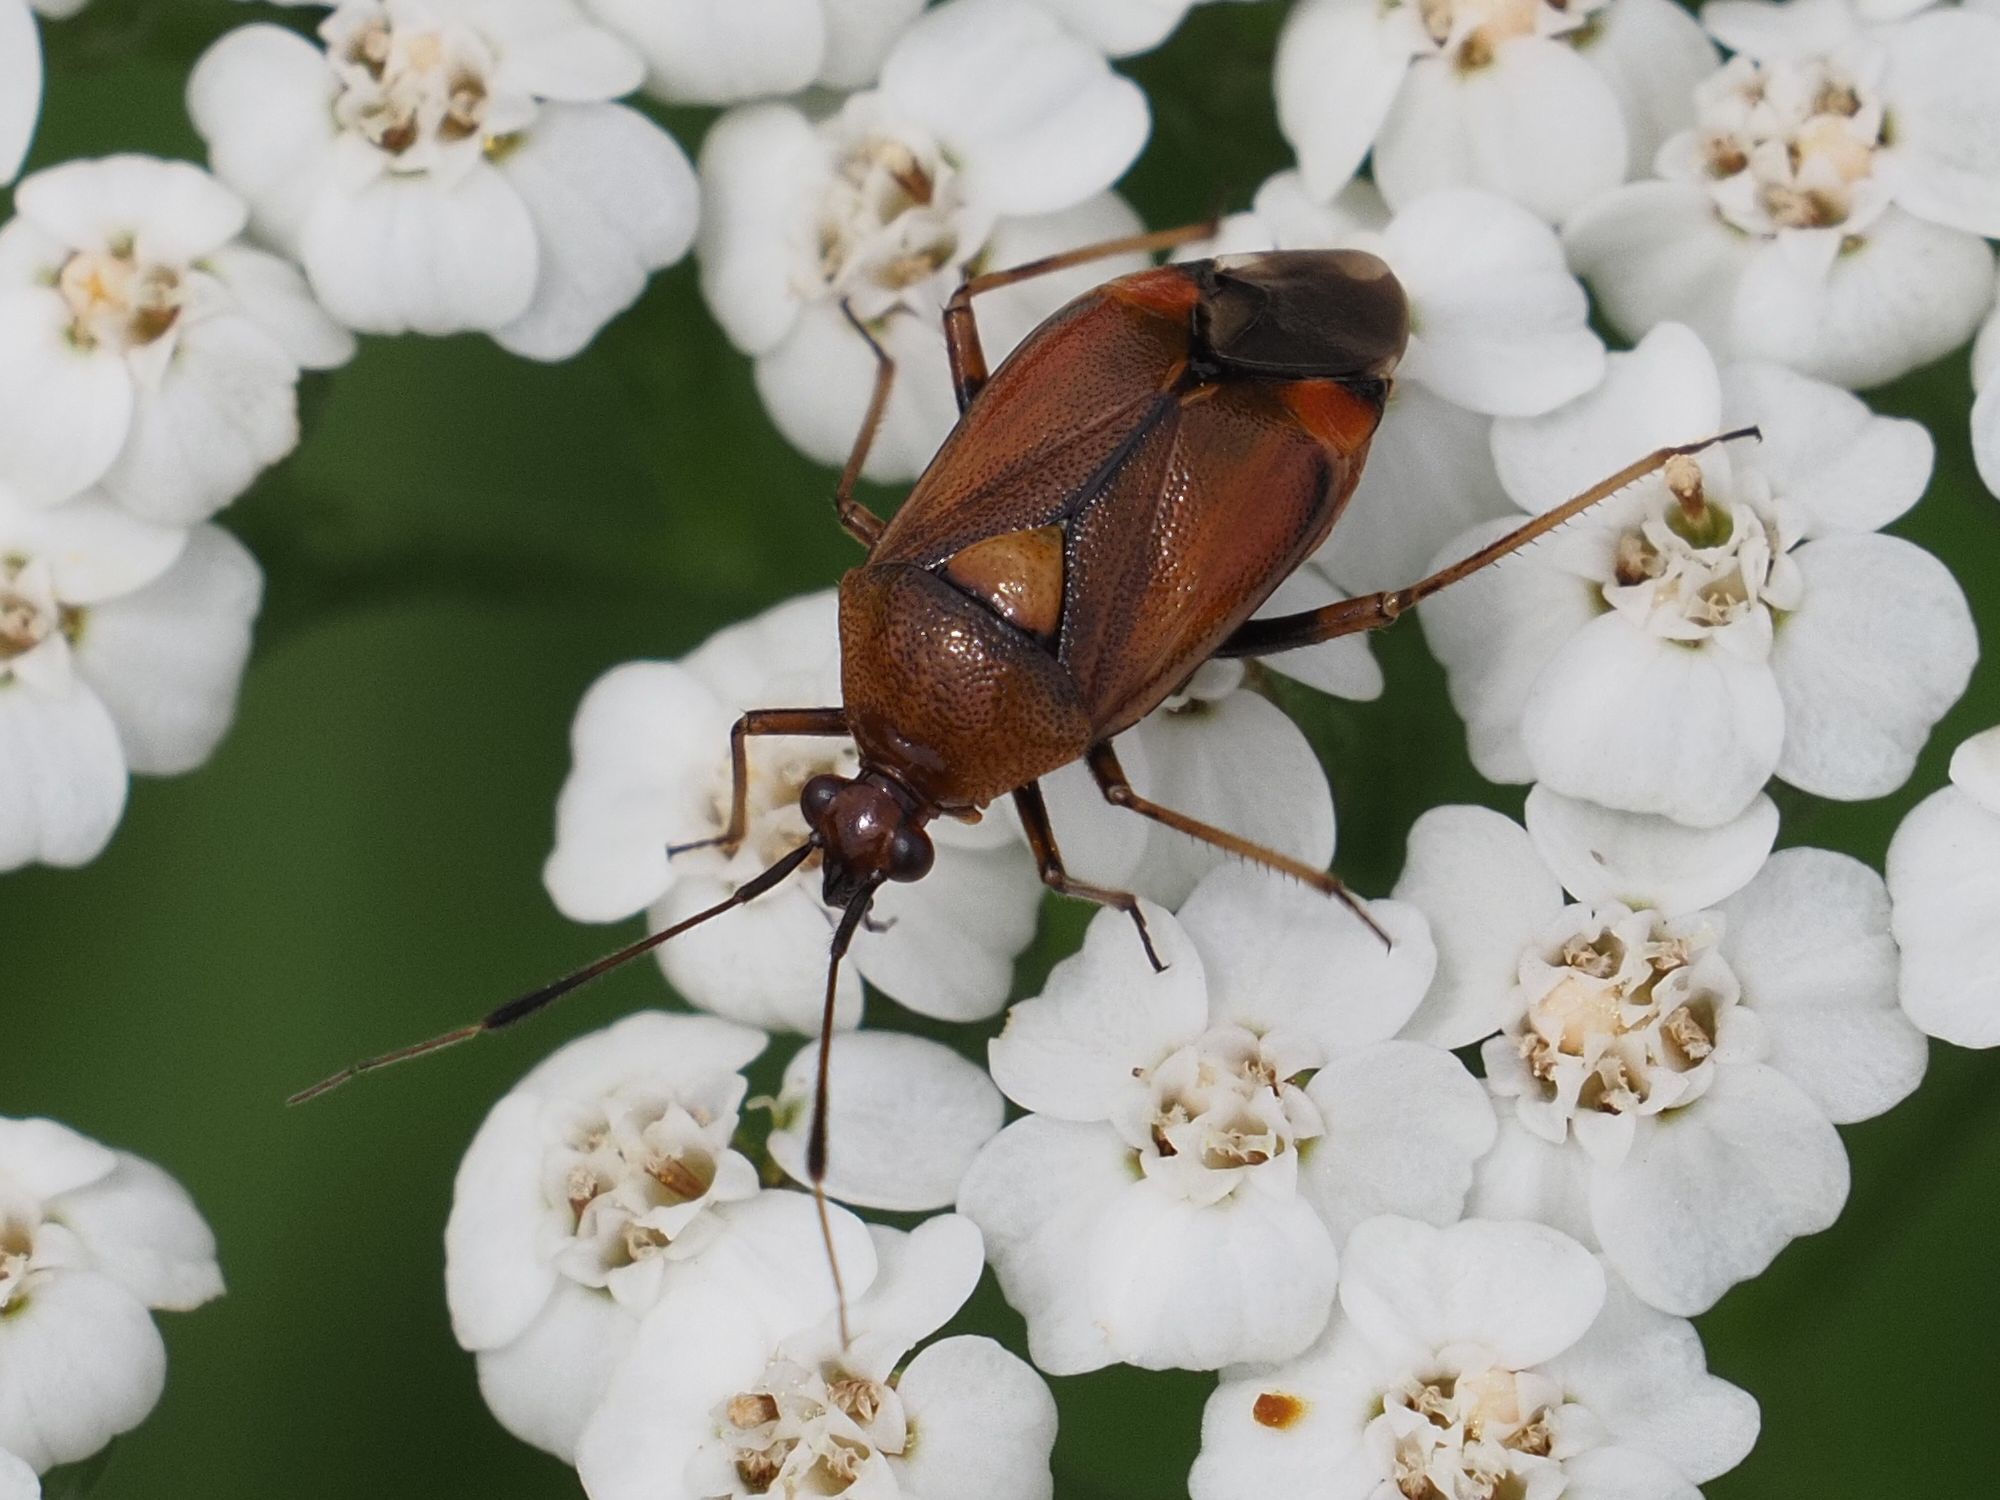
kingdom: Animalia
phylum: Arthropoda
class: Insecta
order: Hemiptera
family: Miridae
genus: Deraeocoris
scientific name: Deraeocoris ruber
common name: Plant bug
